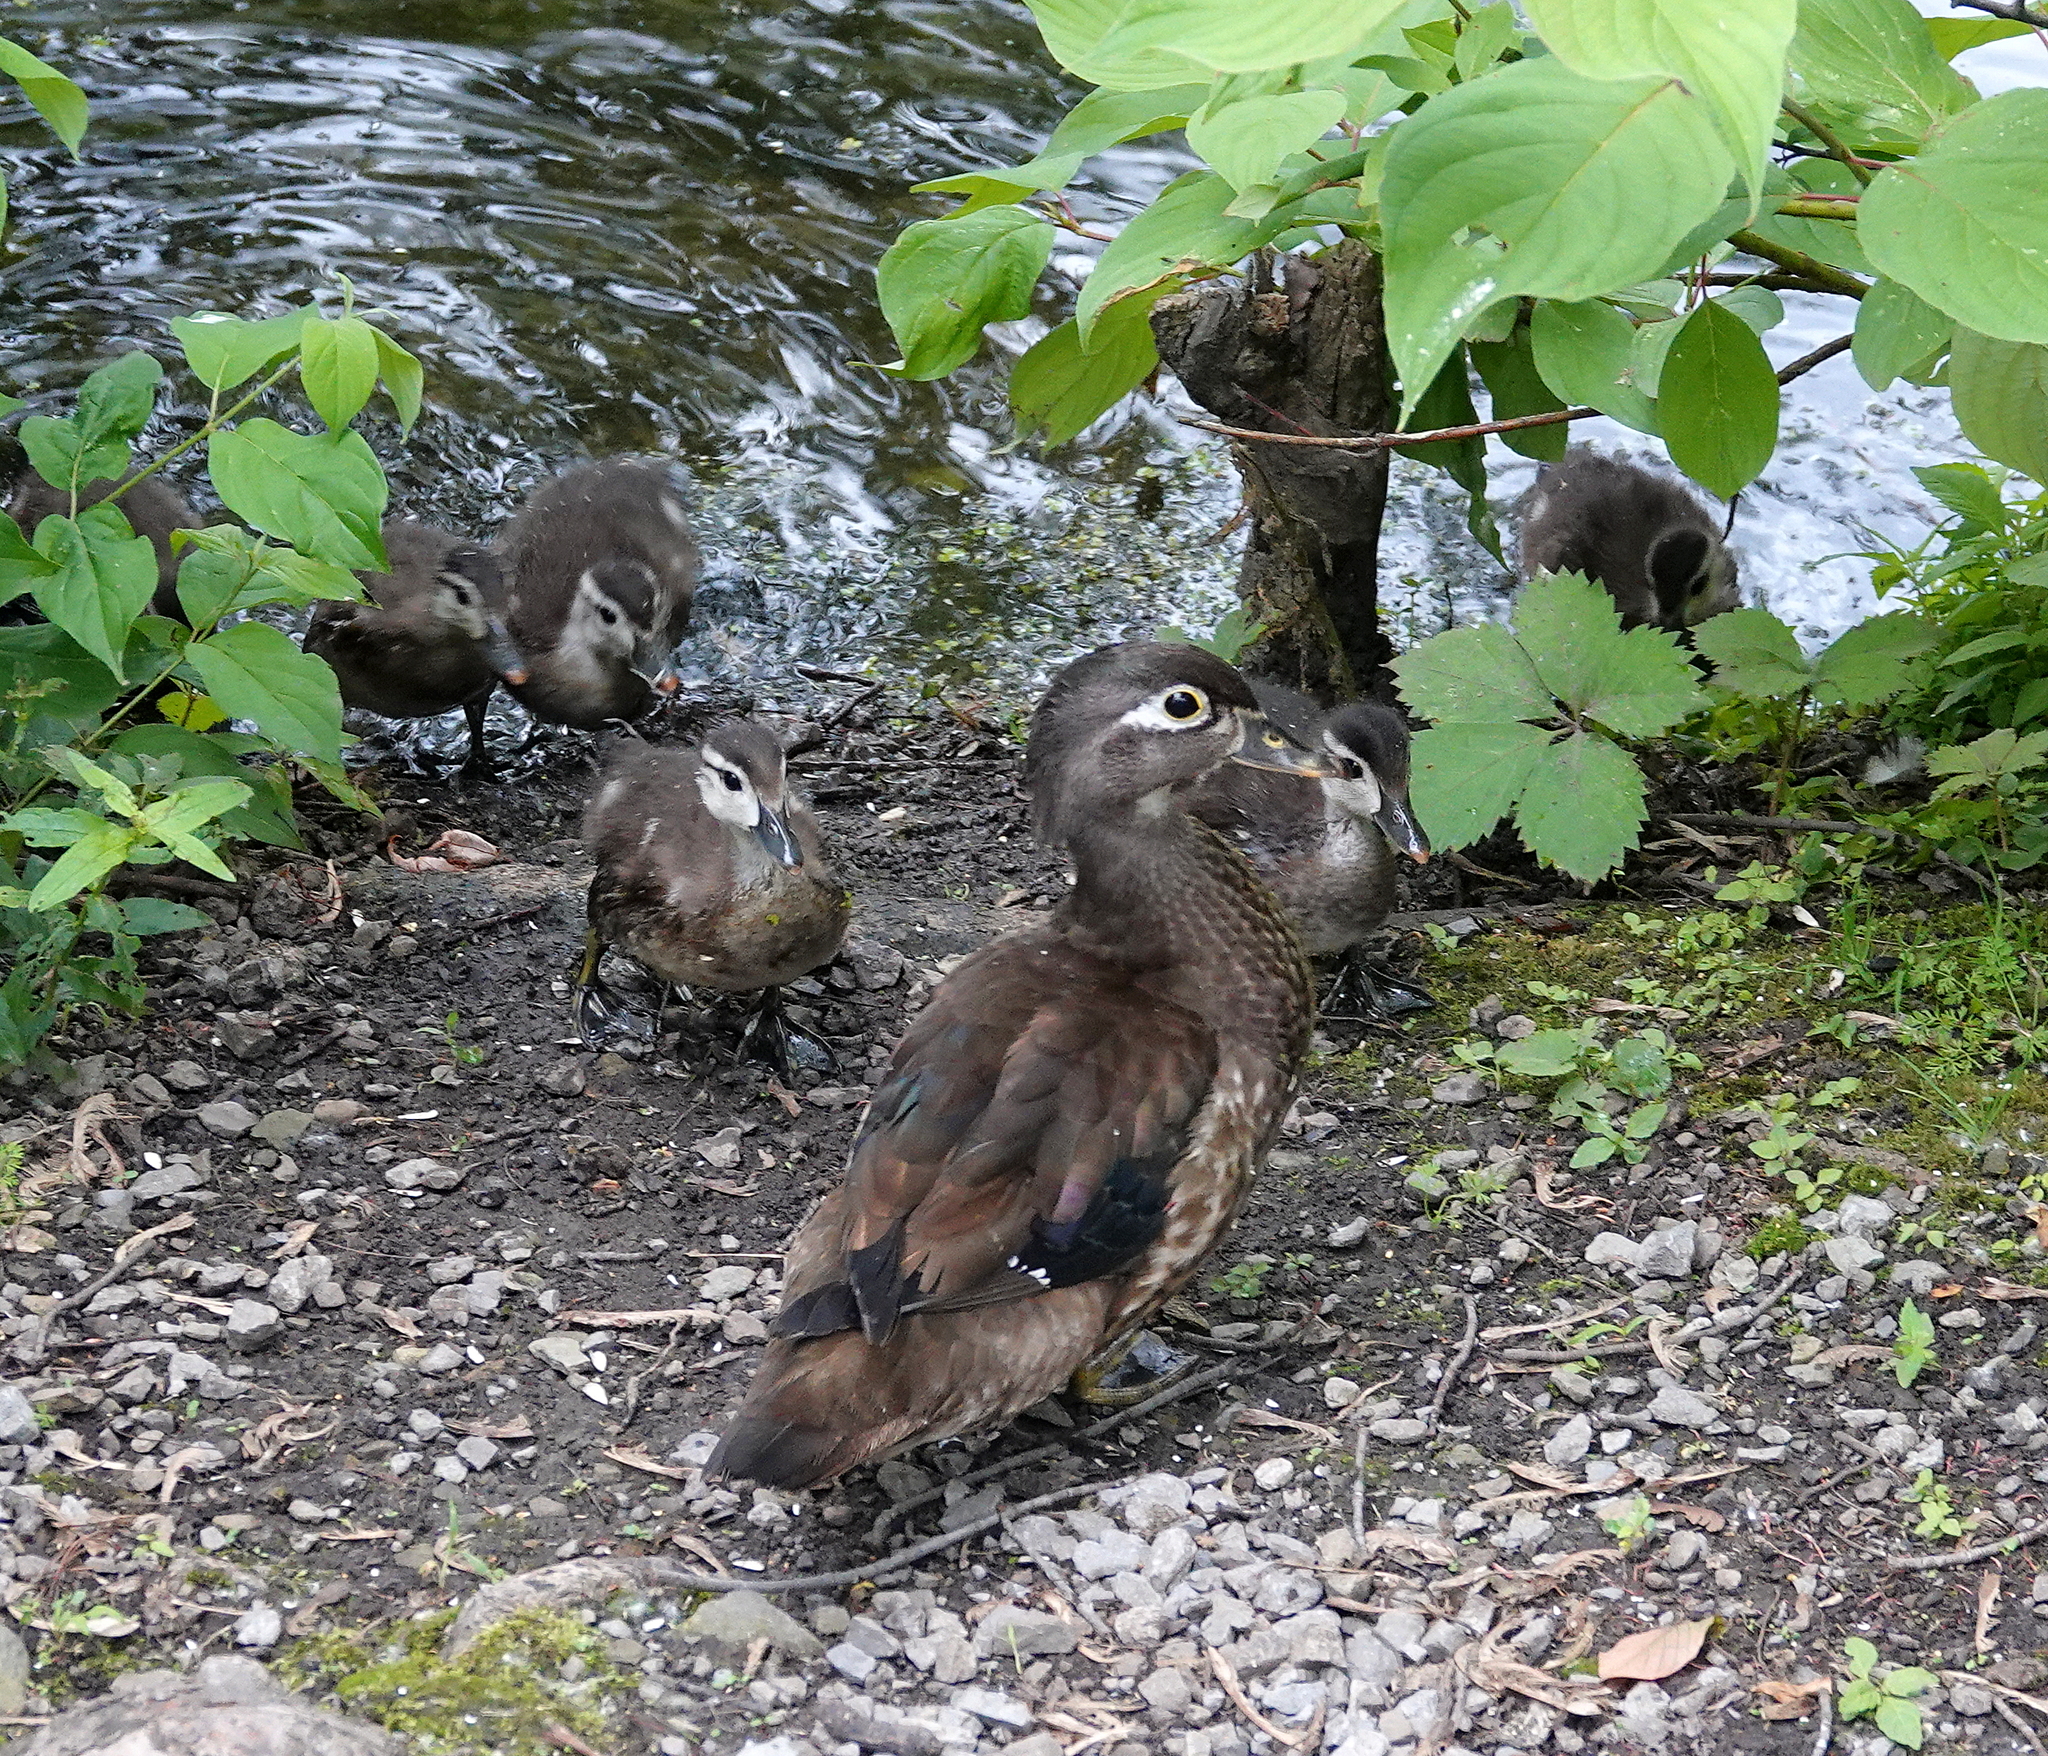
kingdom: Animalia
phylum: Chordata
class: Aves
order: Anseriformes
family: Anatidae
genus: Aix
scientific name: Aix sponsa
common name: Wood duck
